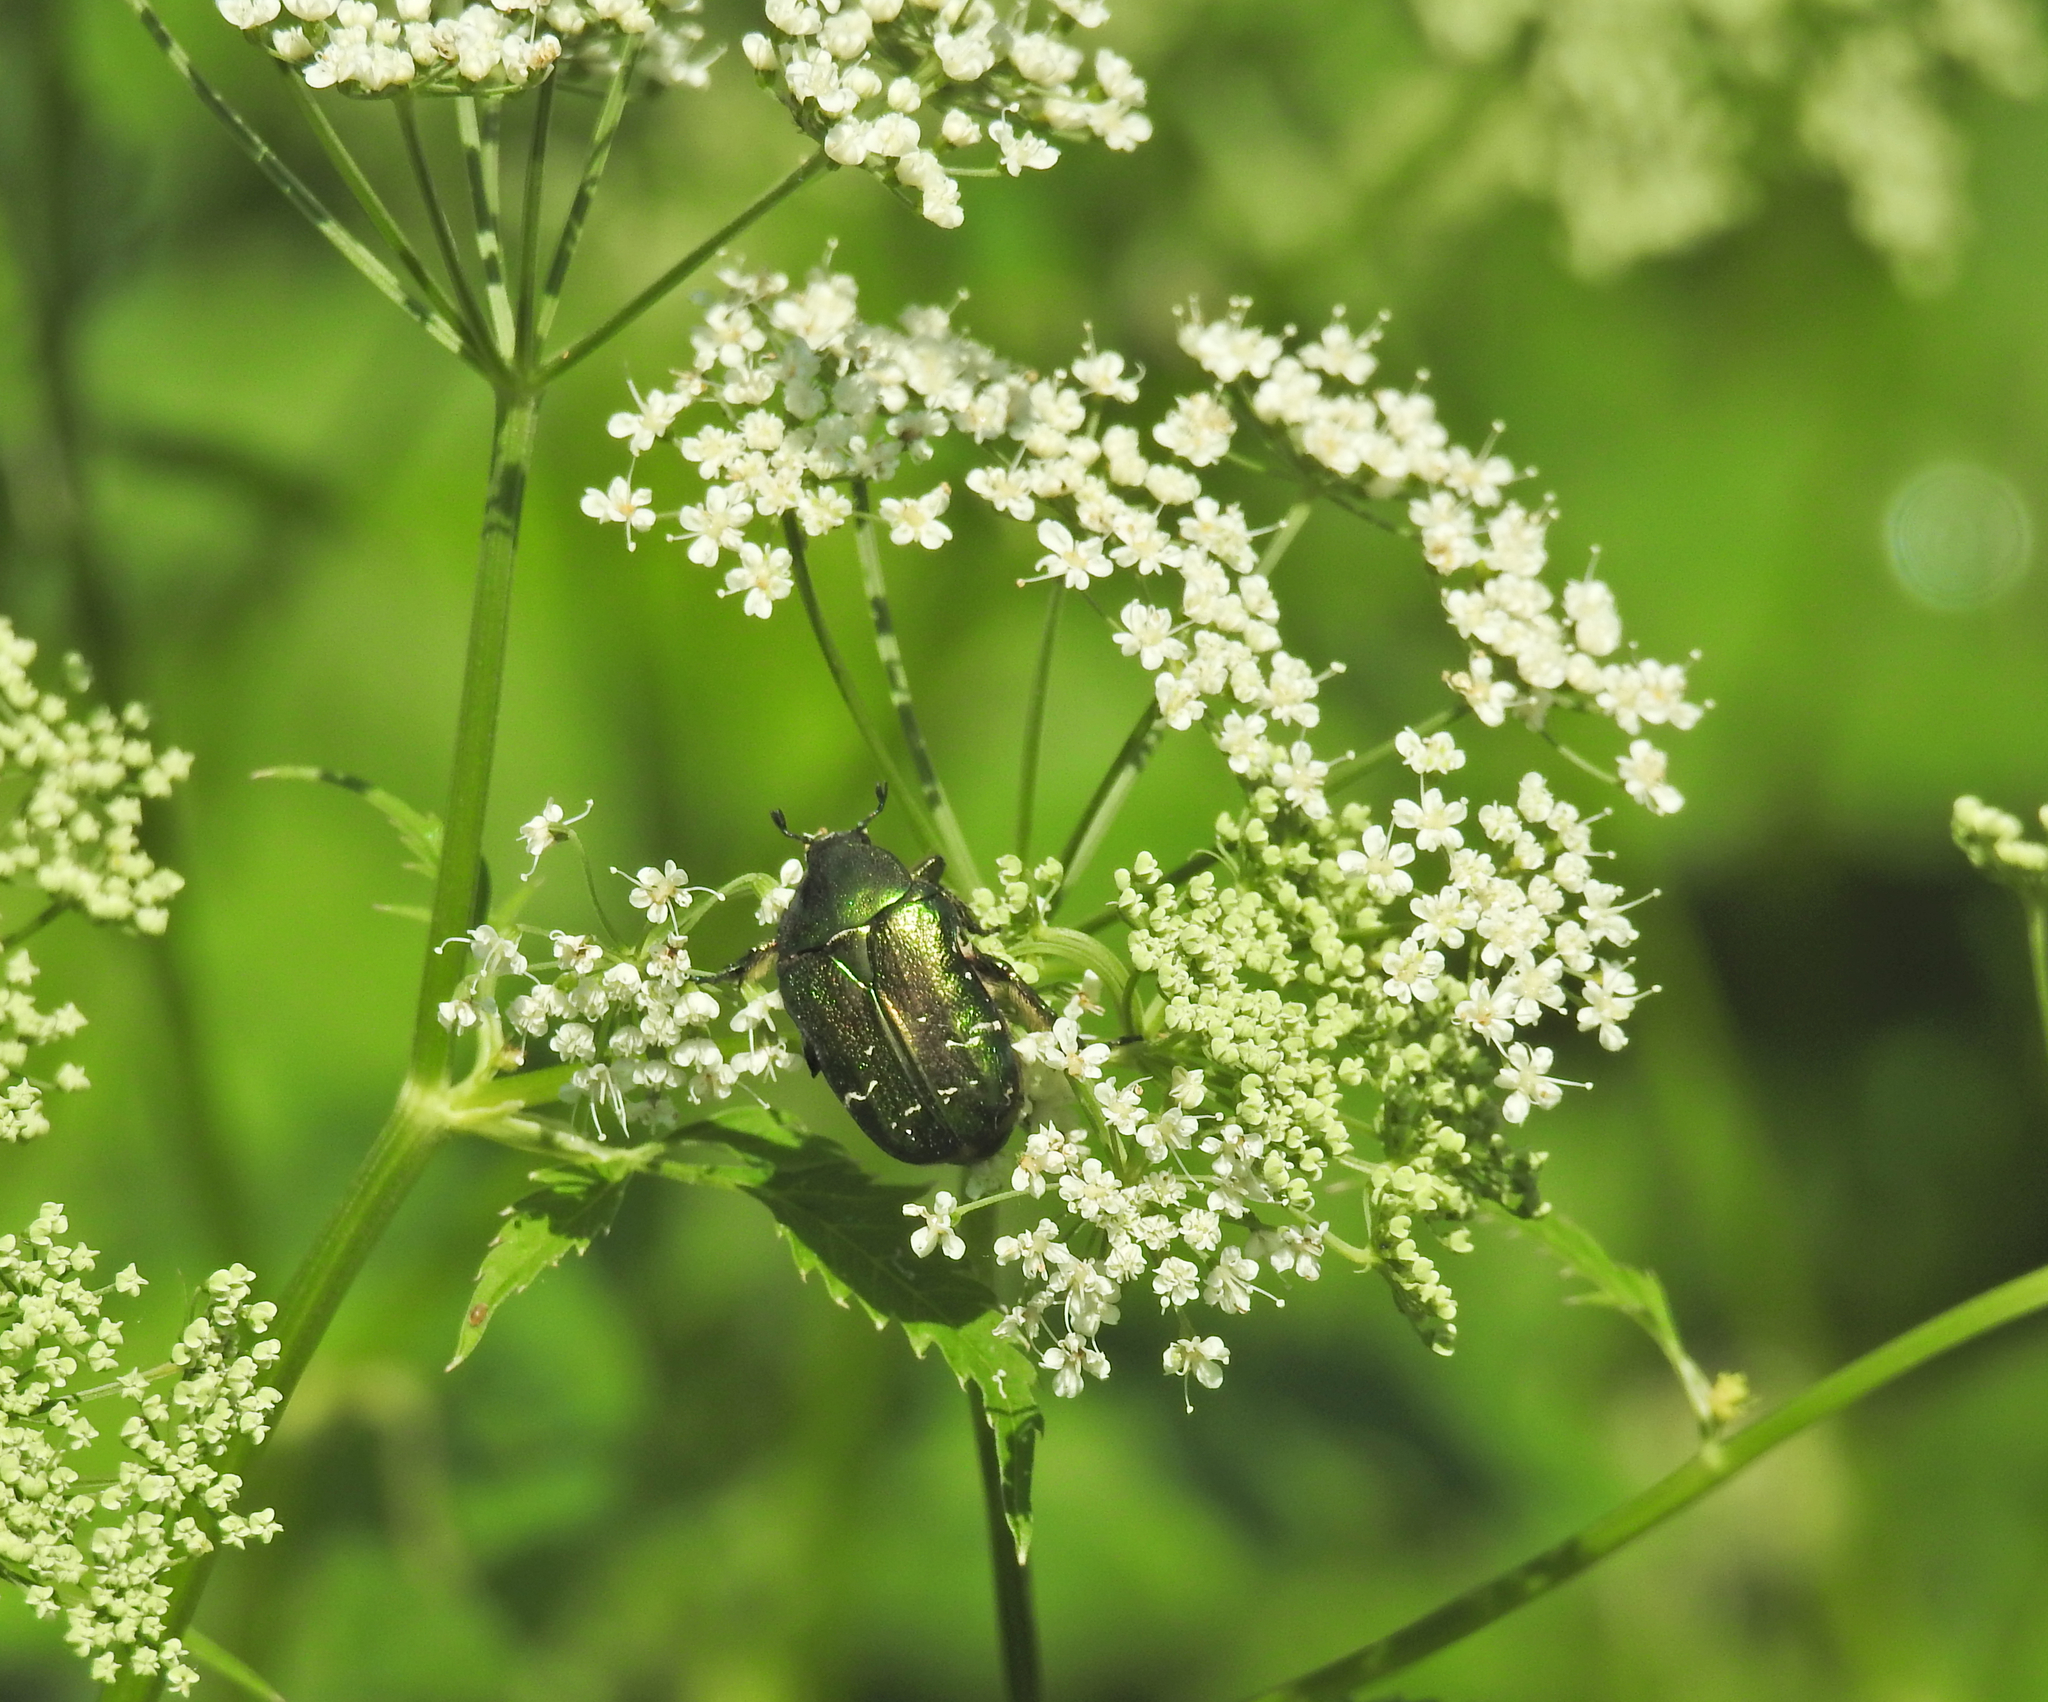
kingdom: Animalia
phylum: Arthropoda
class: Insecta
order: Coleoptera
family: Scarabaeidae
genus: Cetonia
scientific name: Cetonia aurata
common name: Rose chafer
